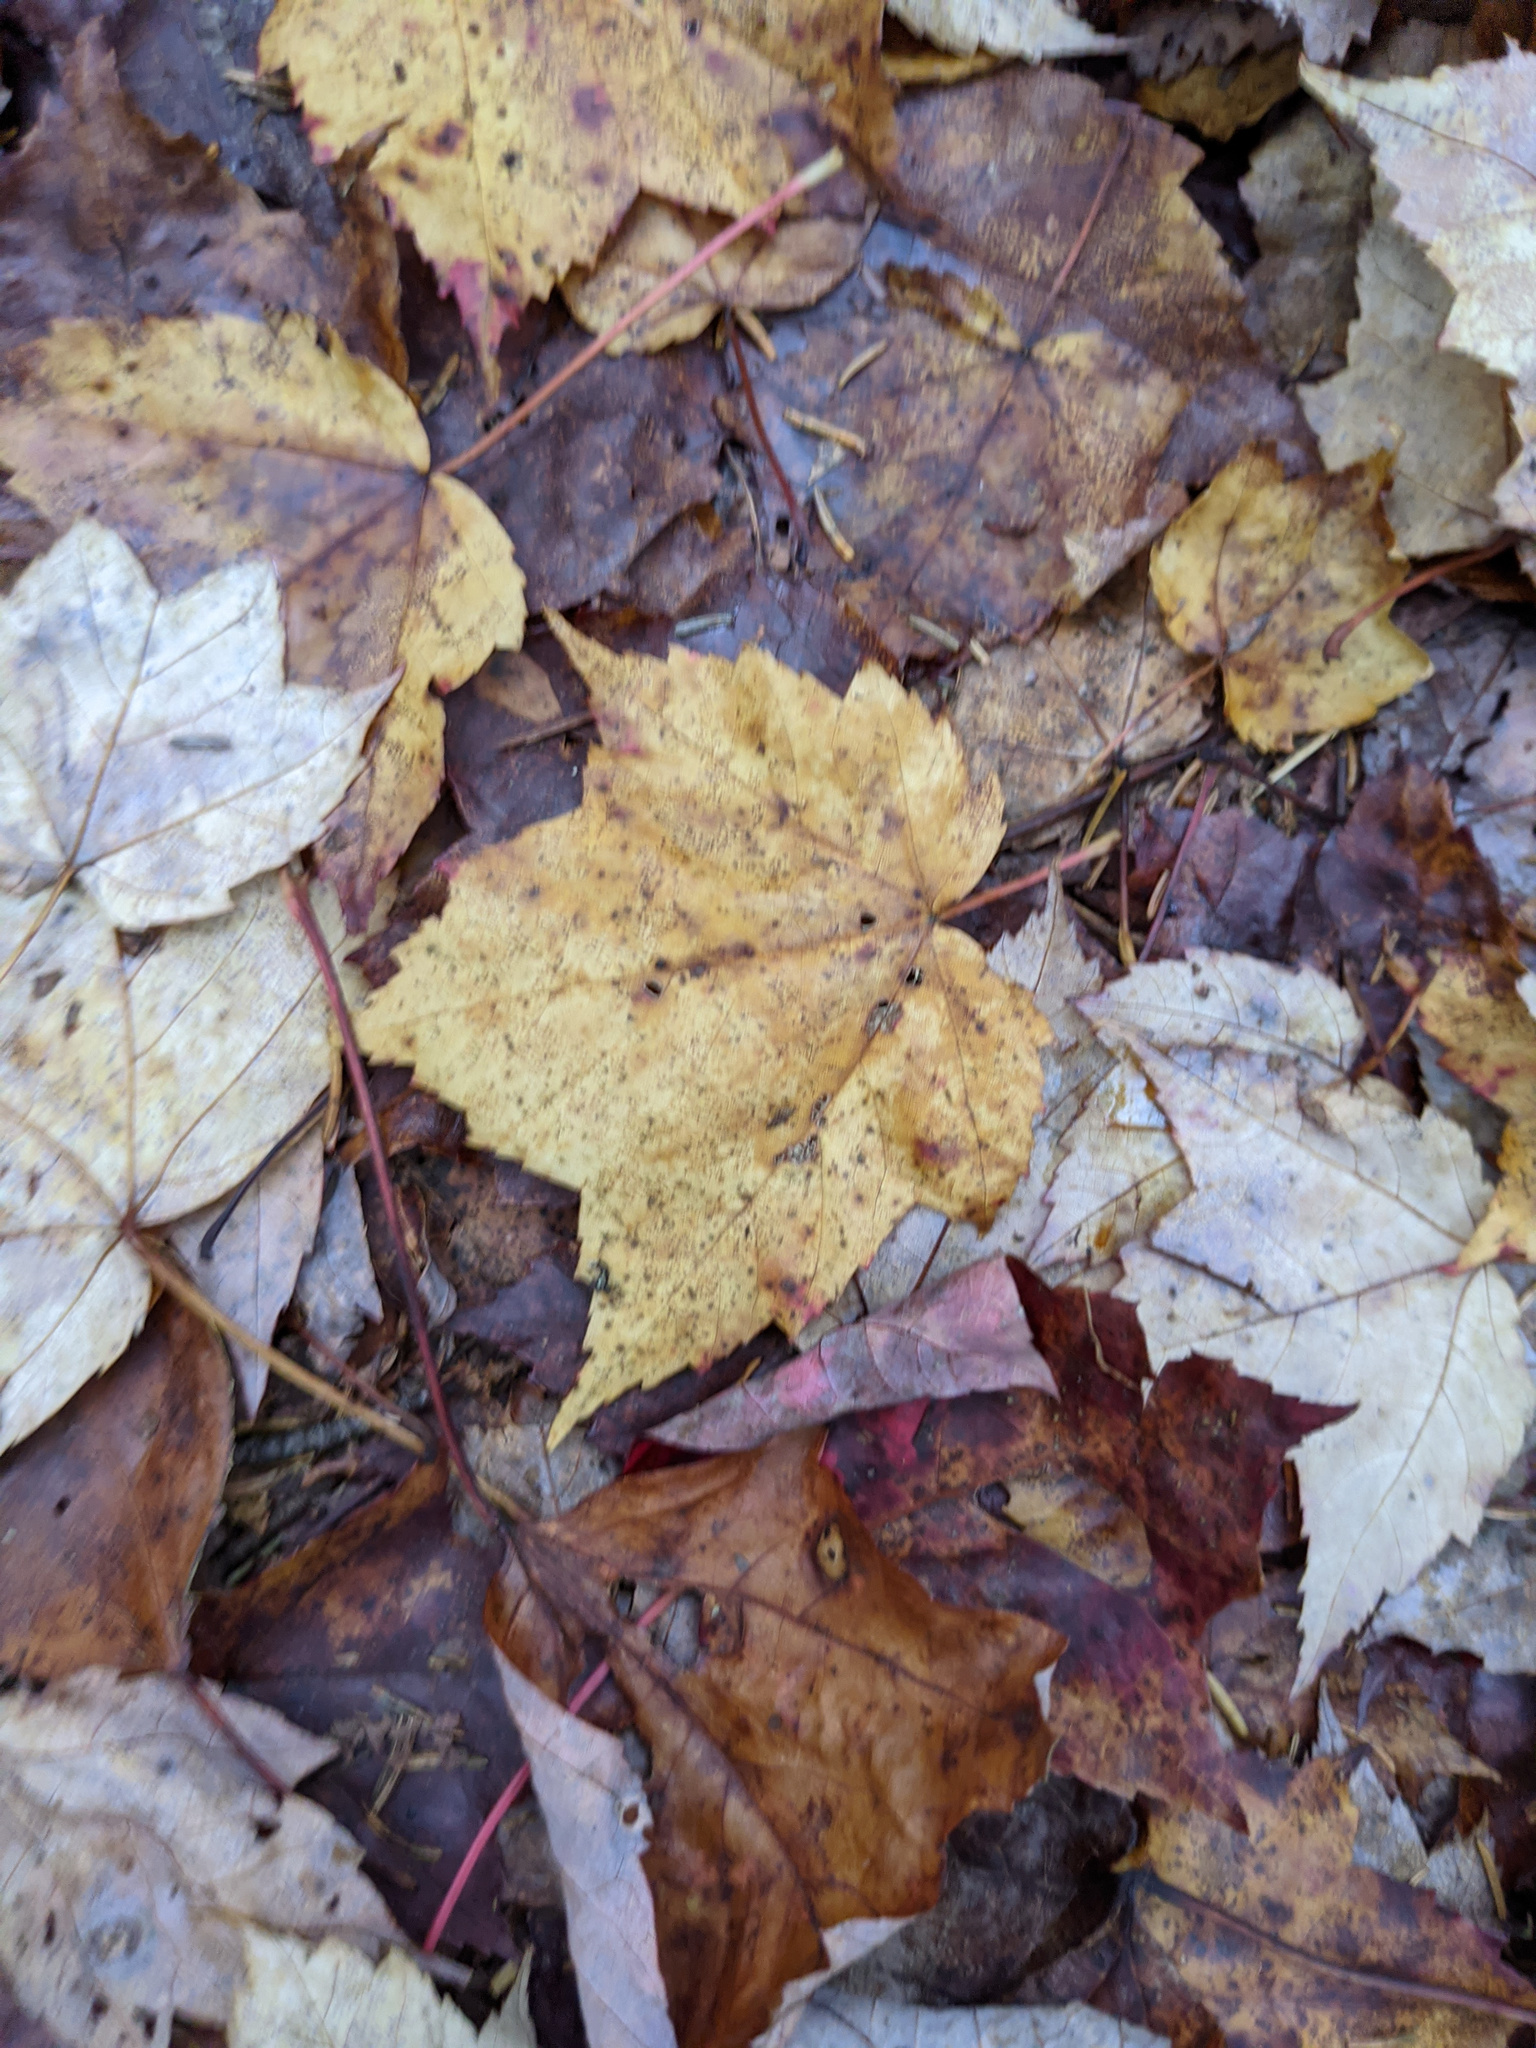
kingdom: Plantae
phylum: Tracheophyta
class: Magnoliopsida
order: Sapindales
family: Sapindaceae
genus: Acer
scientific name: Acer rubrum
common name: Red maple
